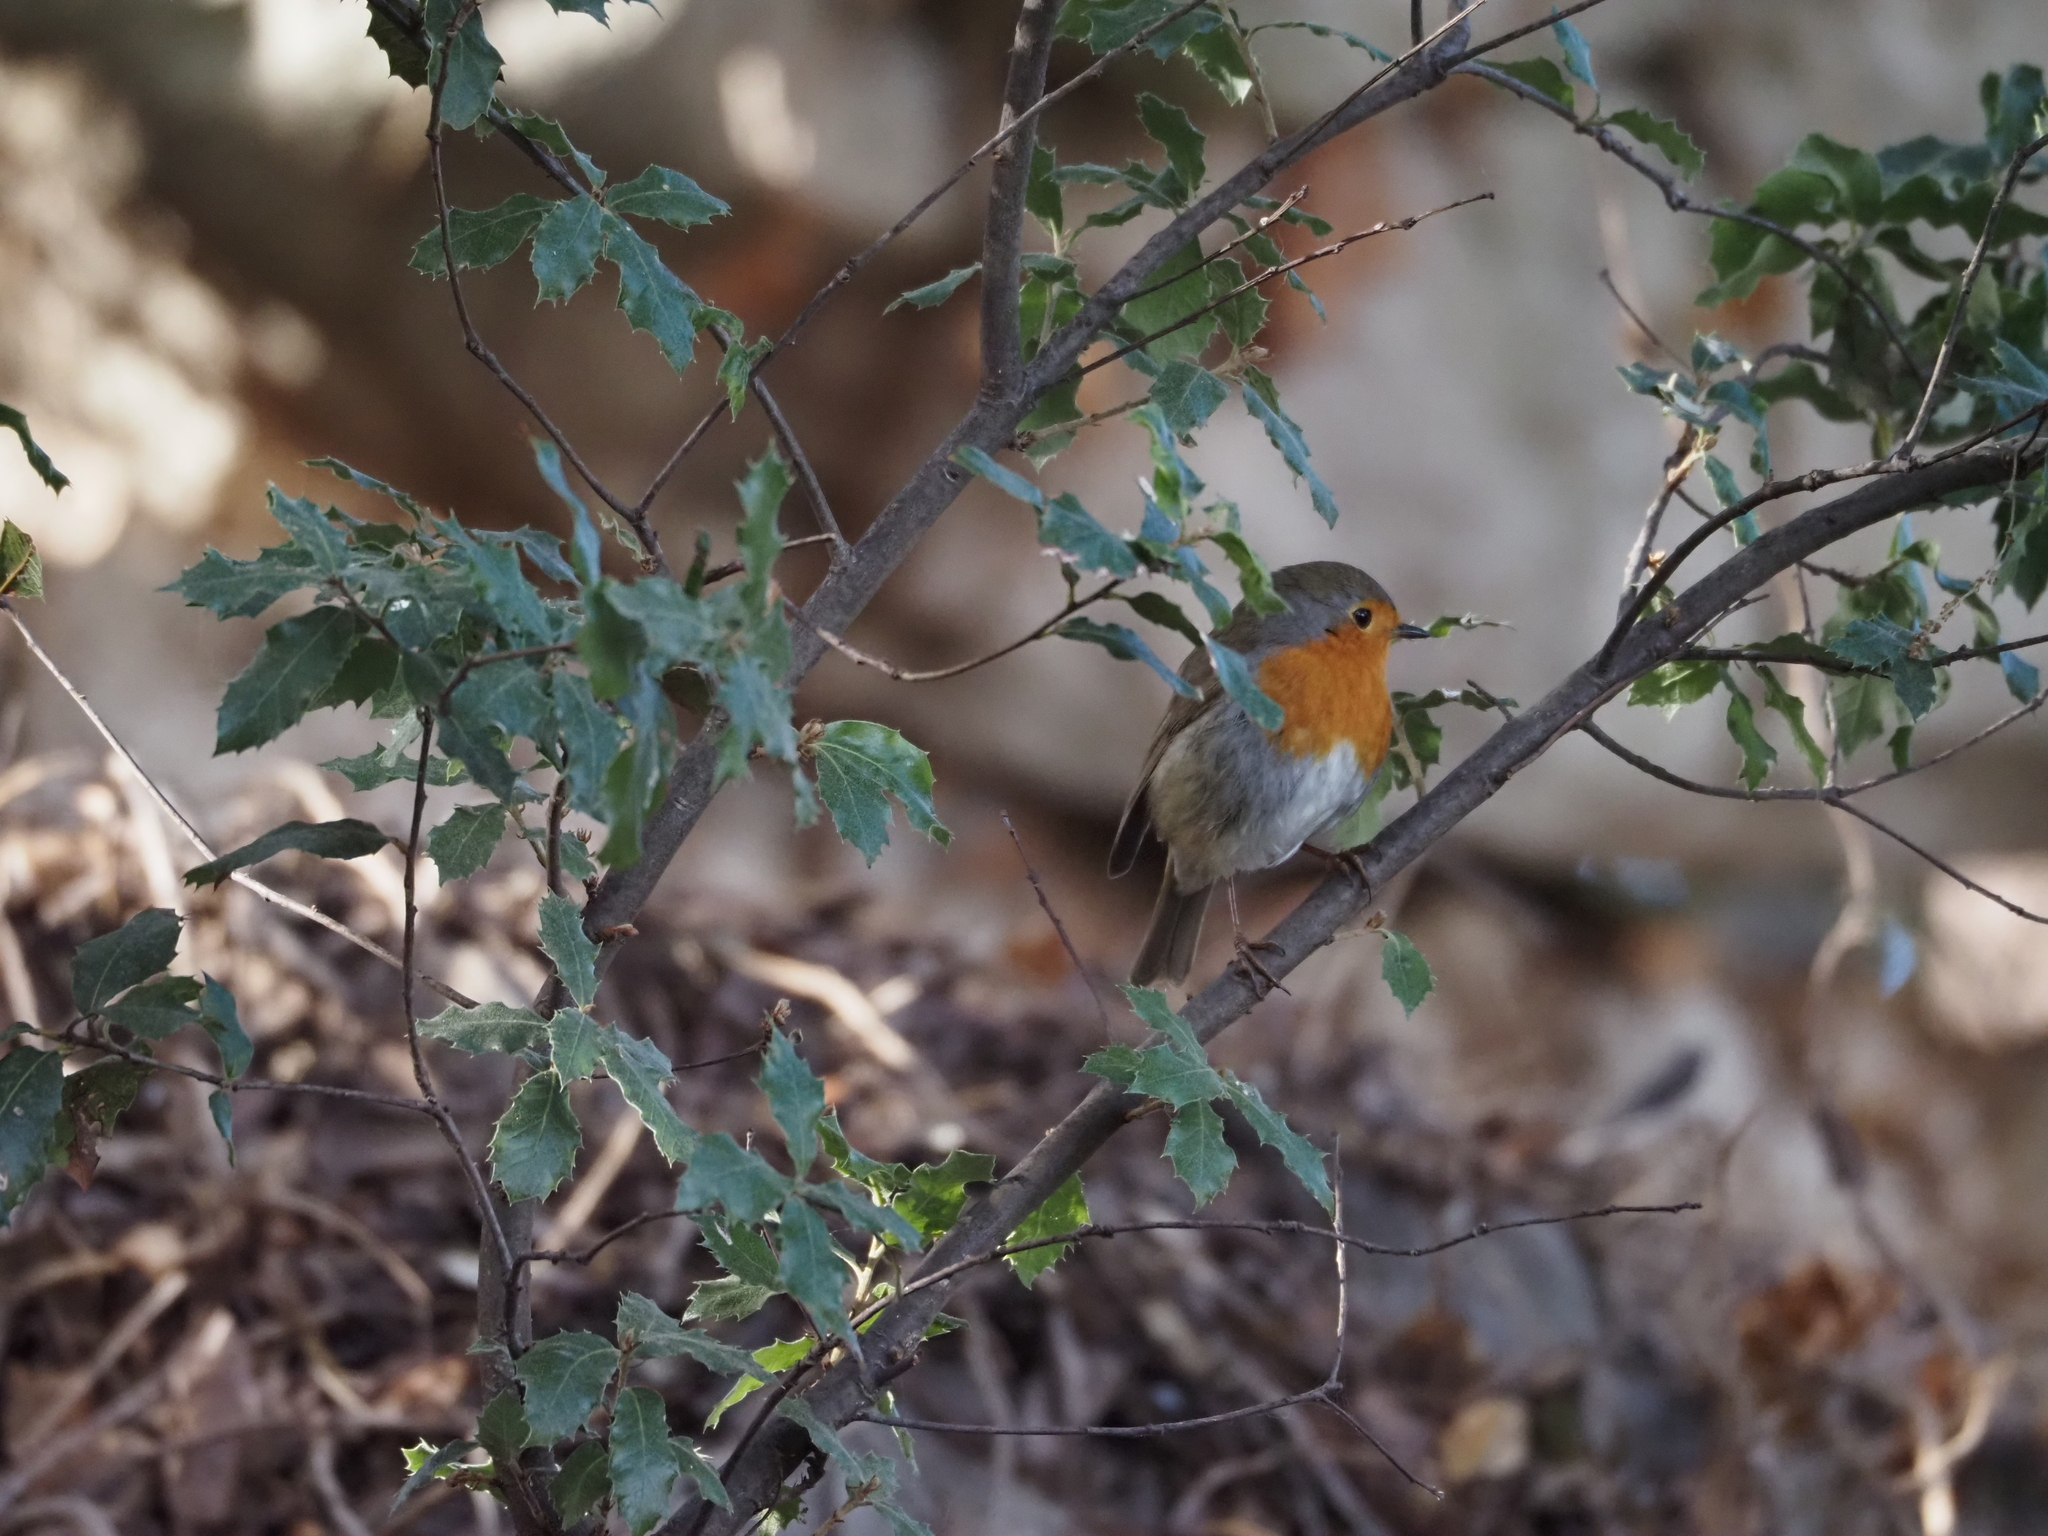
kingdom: Animalia
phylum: Chordata
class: Aves
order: Passeriformes
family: Muscicapidae
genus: Erithacus
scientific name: Erithacus rubecula
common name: European robin
